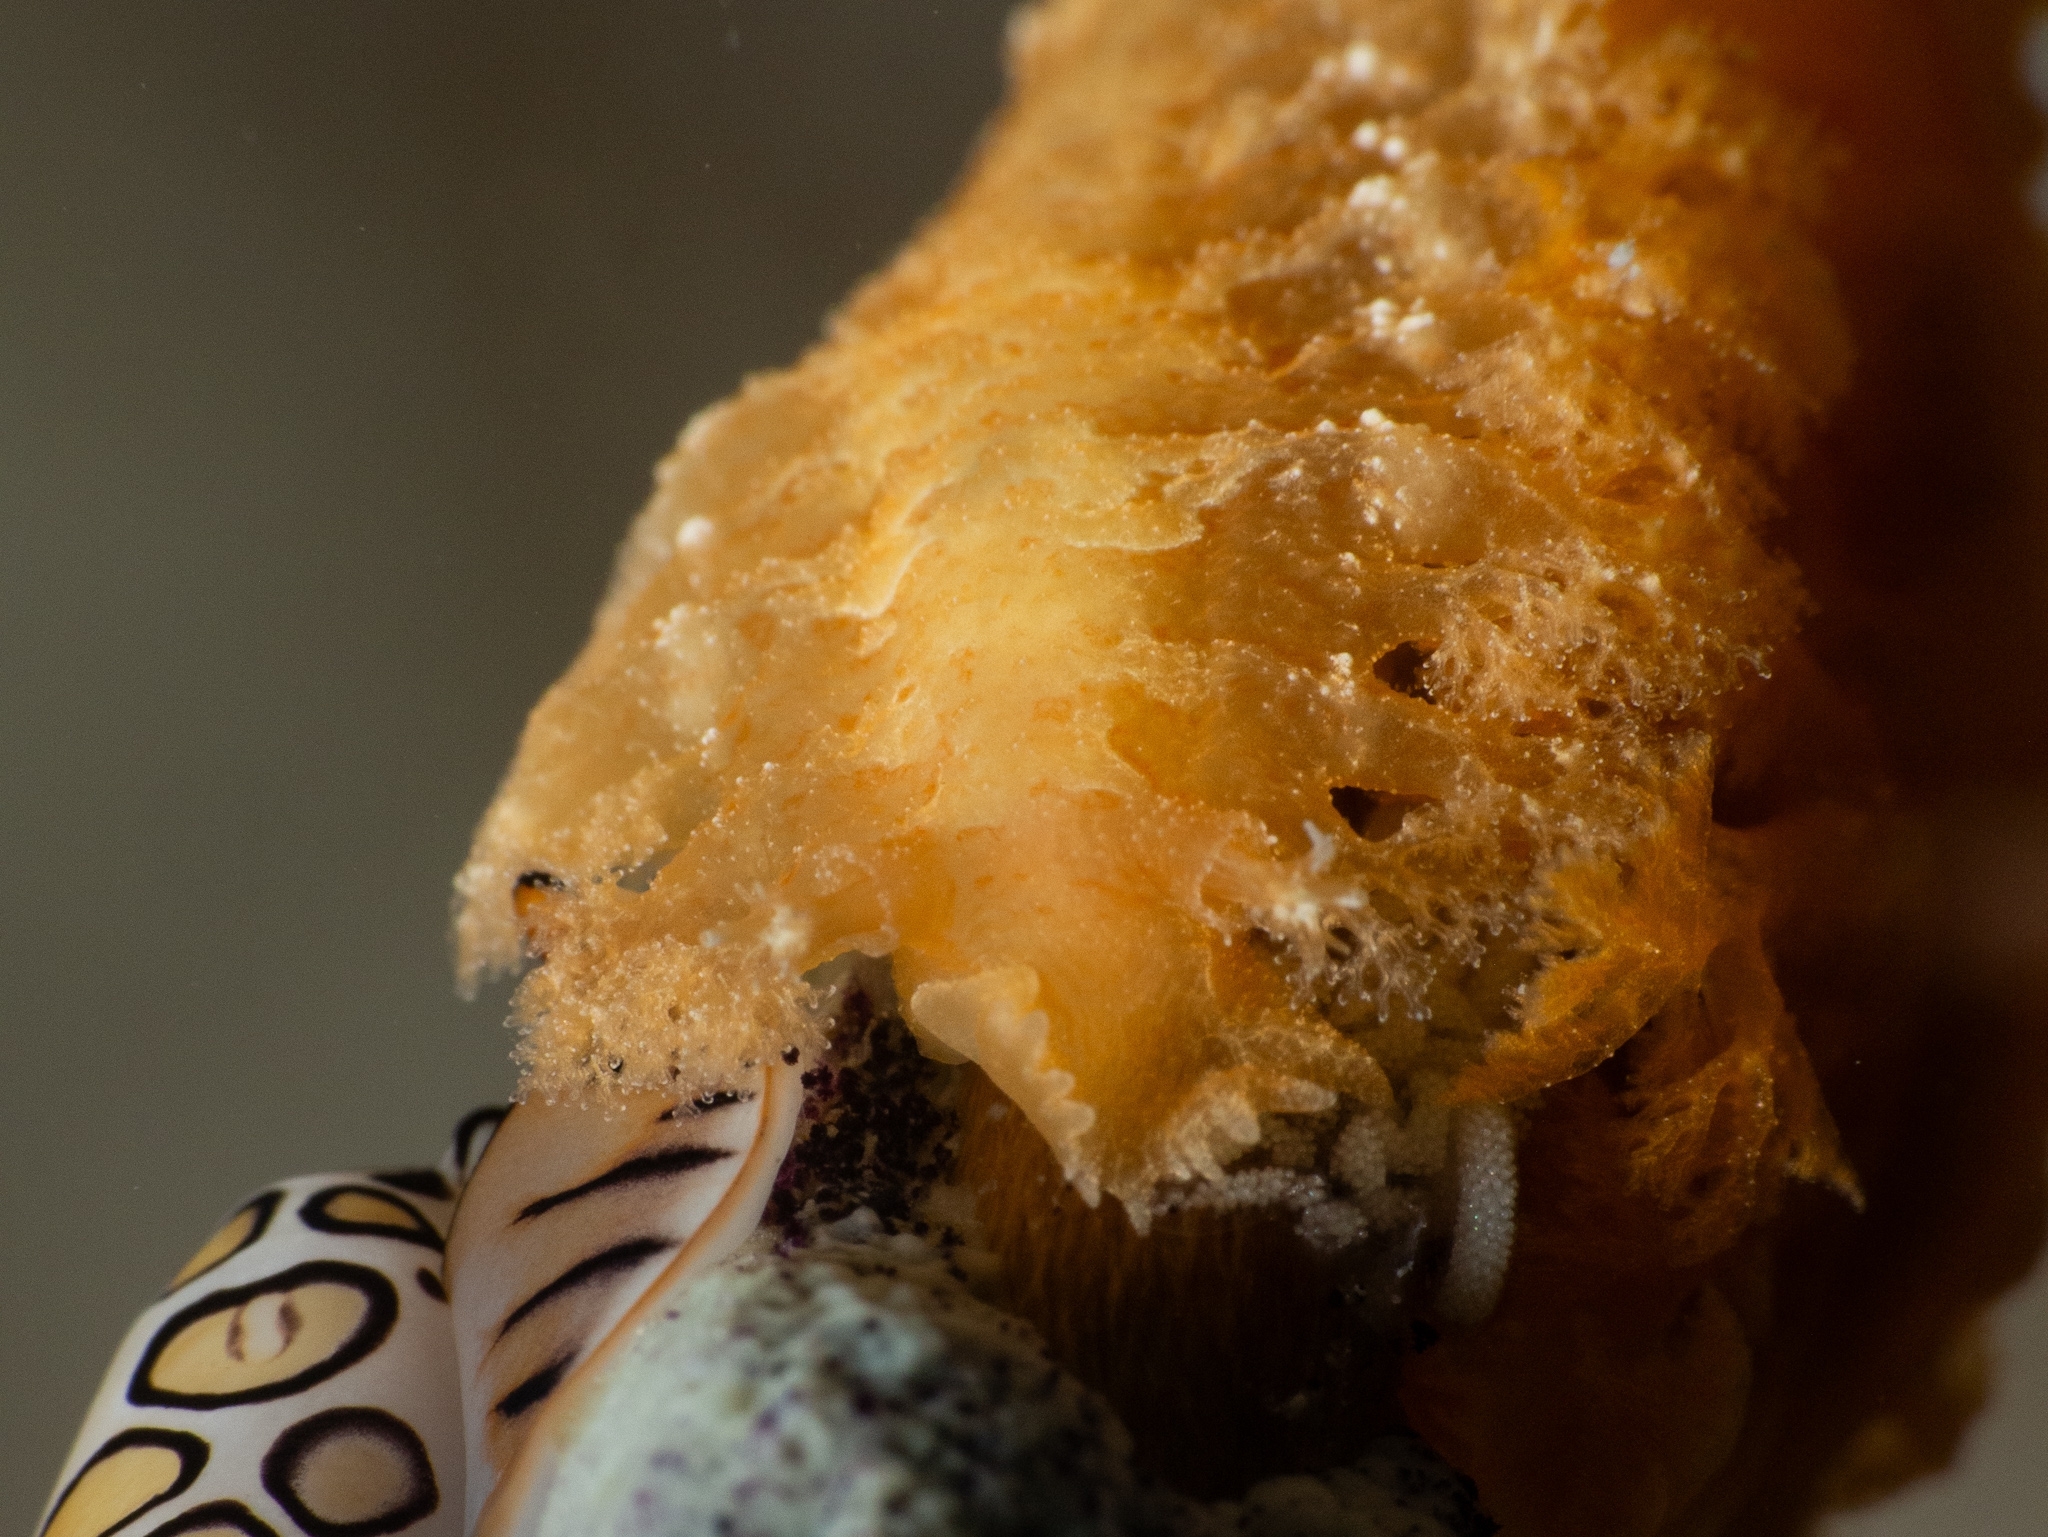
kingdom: Animalia
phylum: Mollusca
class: Gastropoda
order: Nudibranchia
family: Tritoniidae
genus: Tritoniopsis
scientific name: Tritoniopsis frydis
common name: Tufted tritoniopsis
